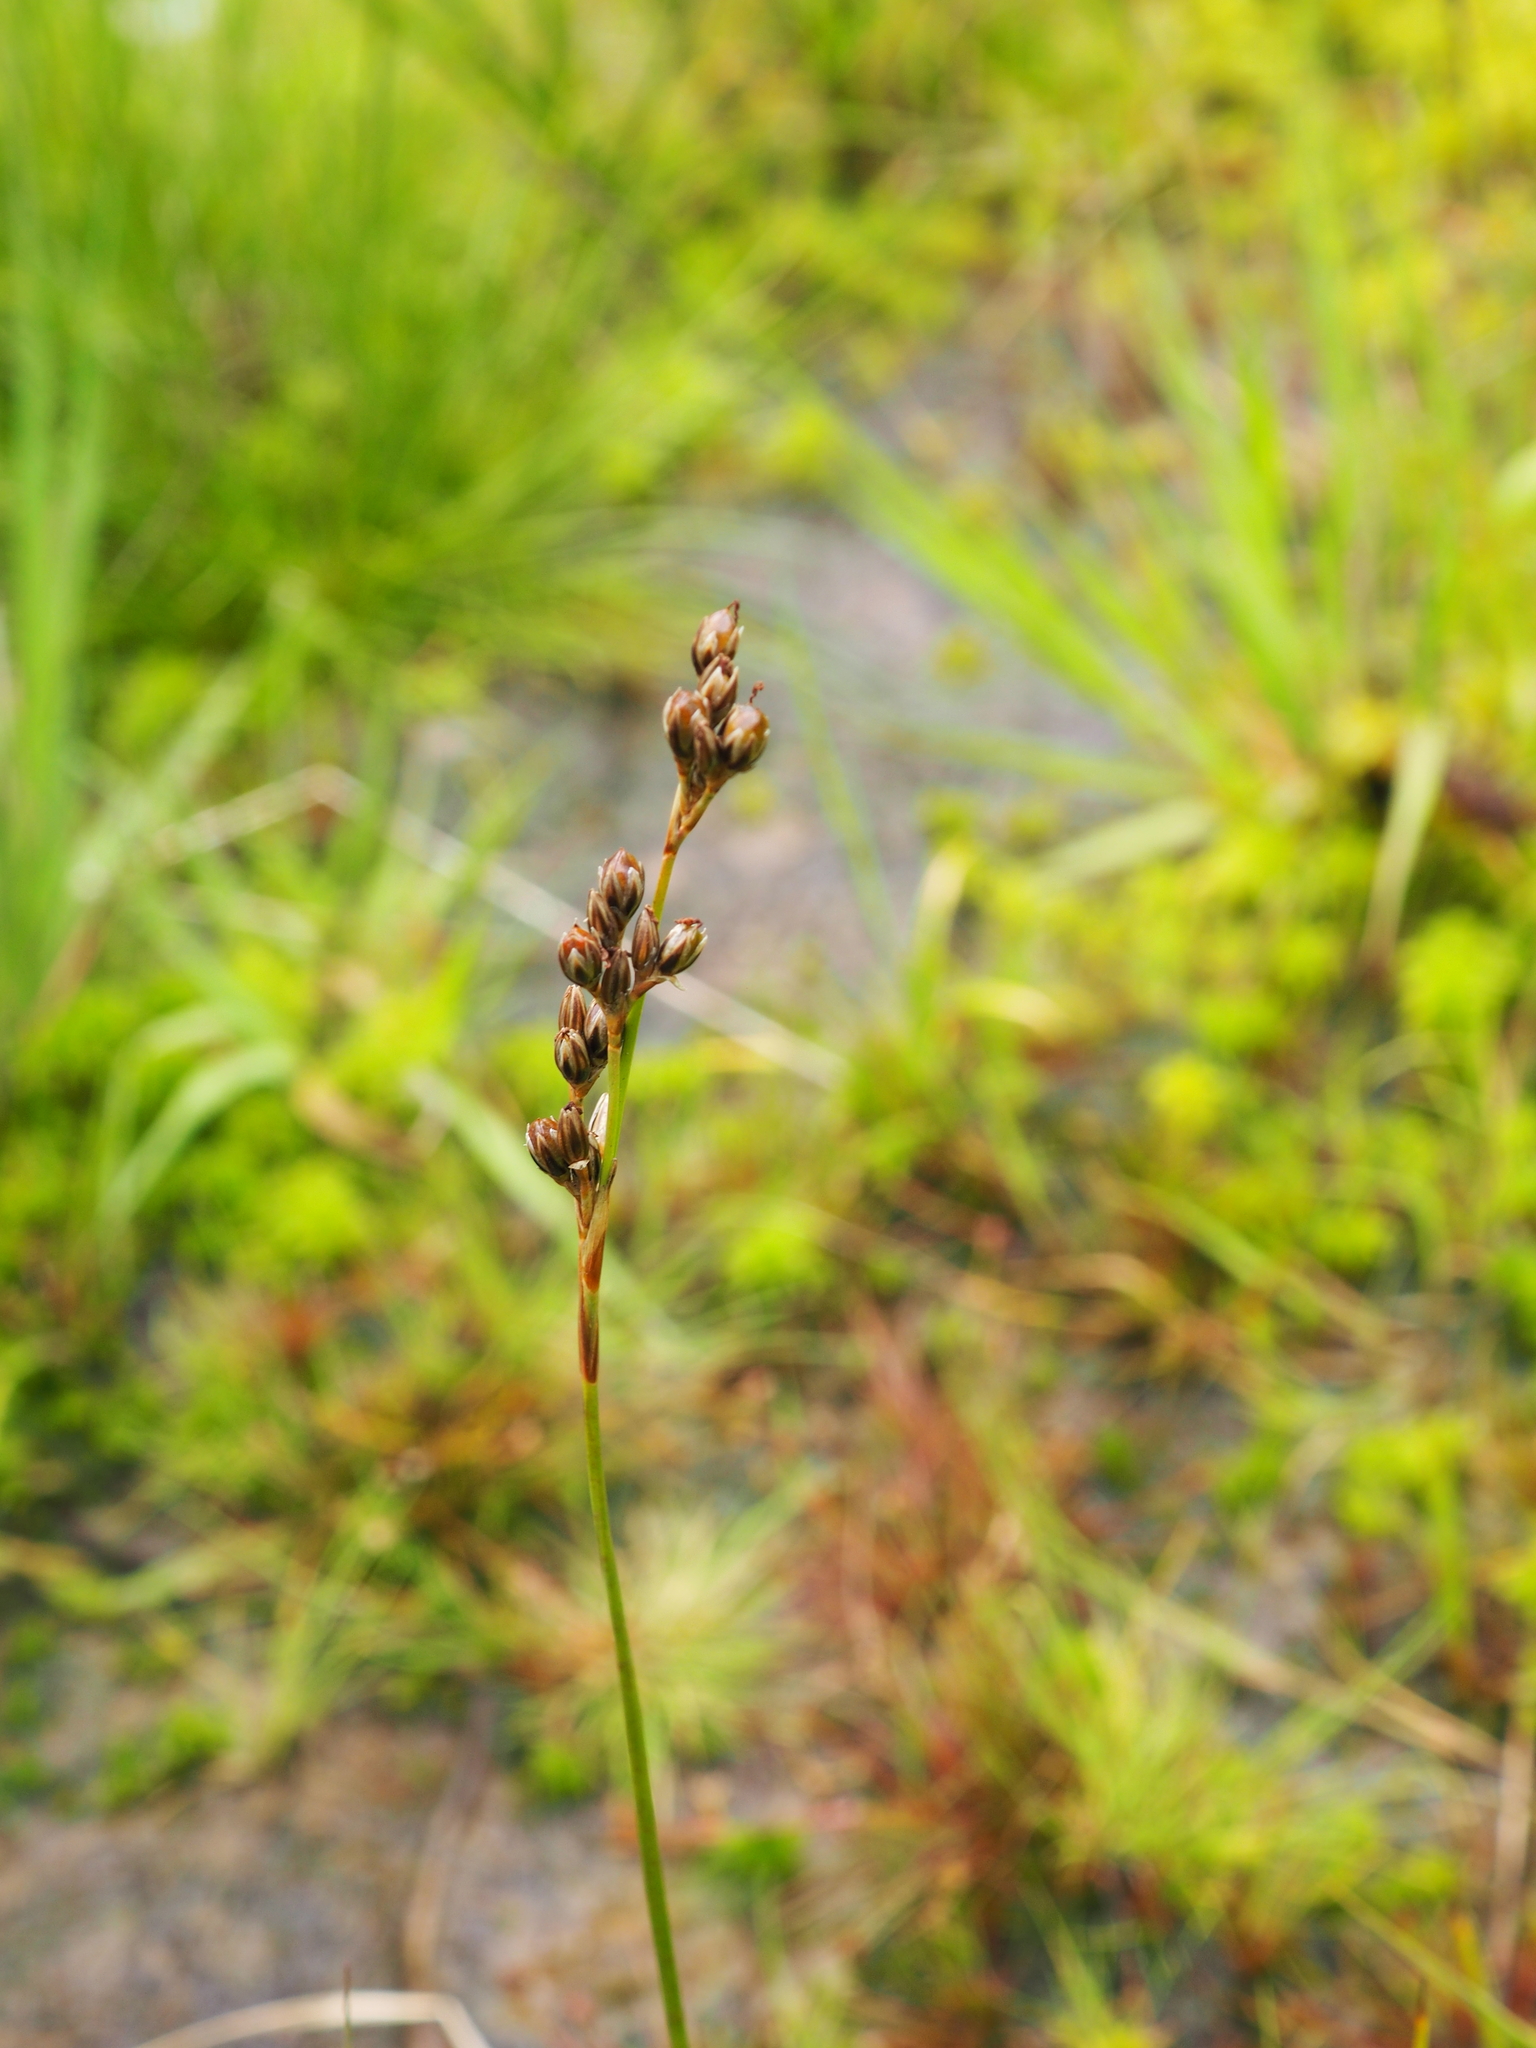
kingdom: Plantae
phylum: Tracheophyta
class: Liliopsida
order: Poales
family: Juncaceae
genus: Juncus
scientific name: Juncus squarrosus
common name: Heath rush
